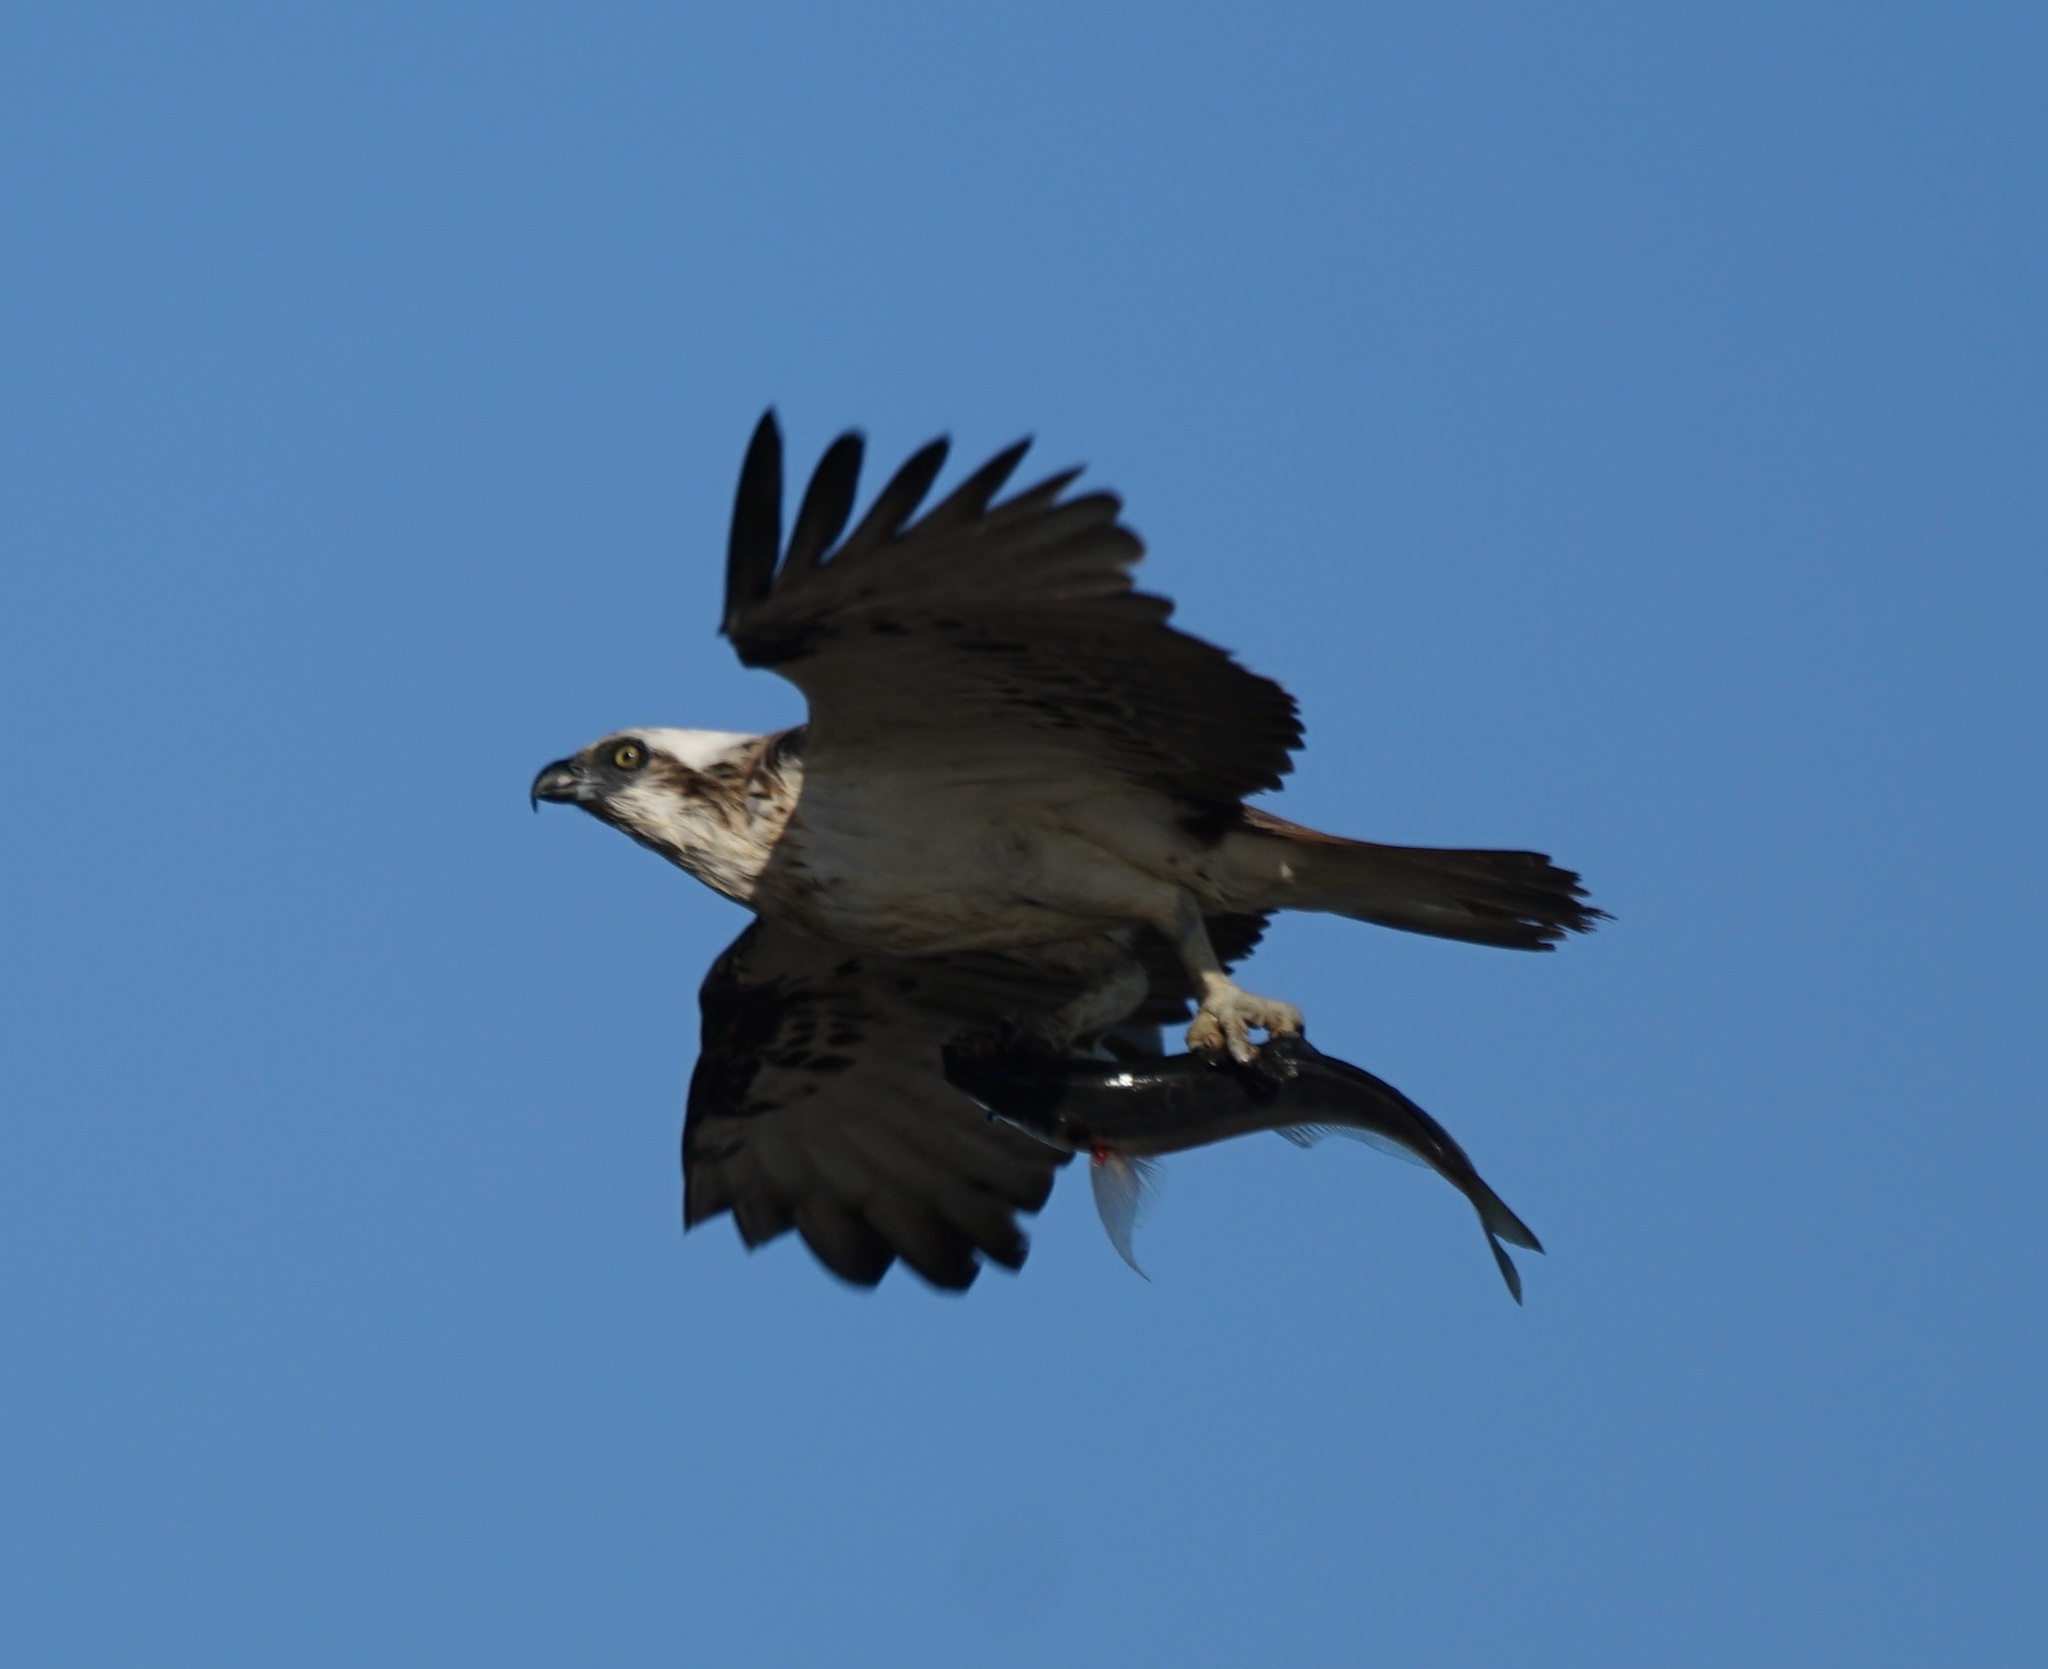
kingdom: Animalia
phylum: Chordata
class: Aves
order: Accipitriformes
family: Pandionidae
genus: Pandion
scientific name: Pandion haliaetus
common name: Osprey
